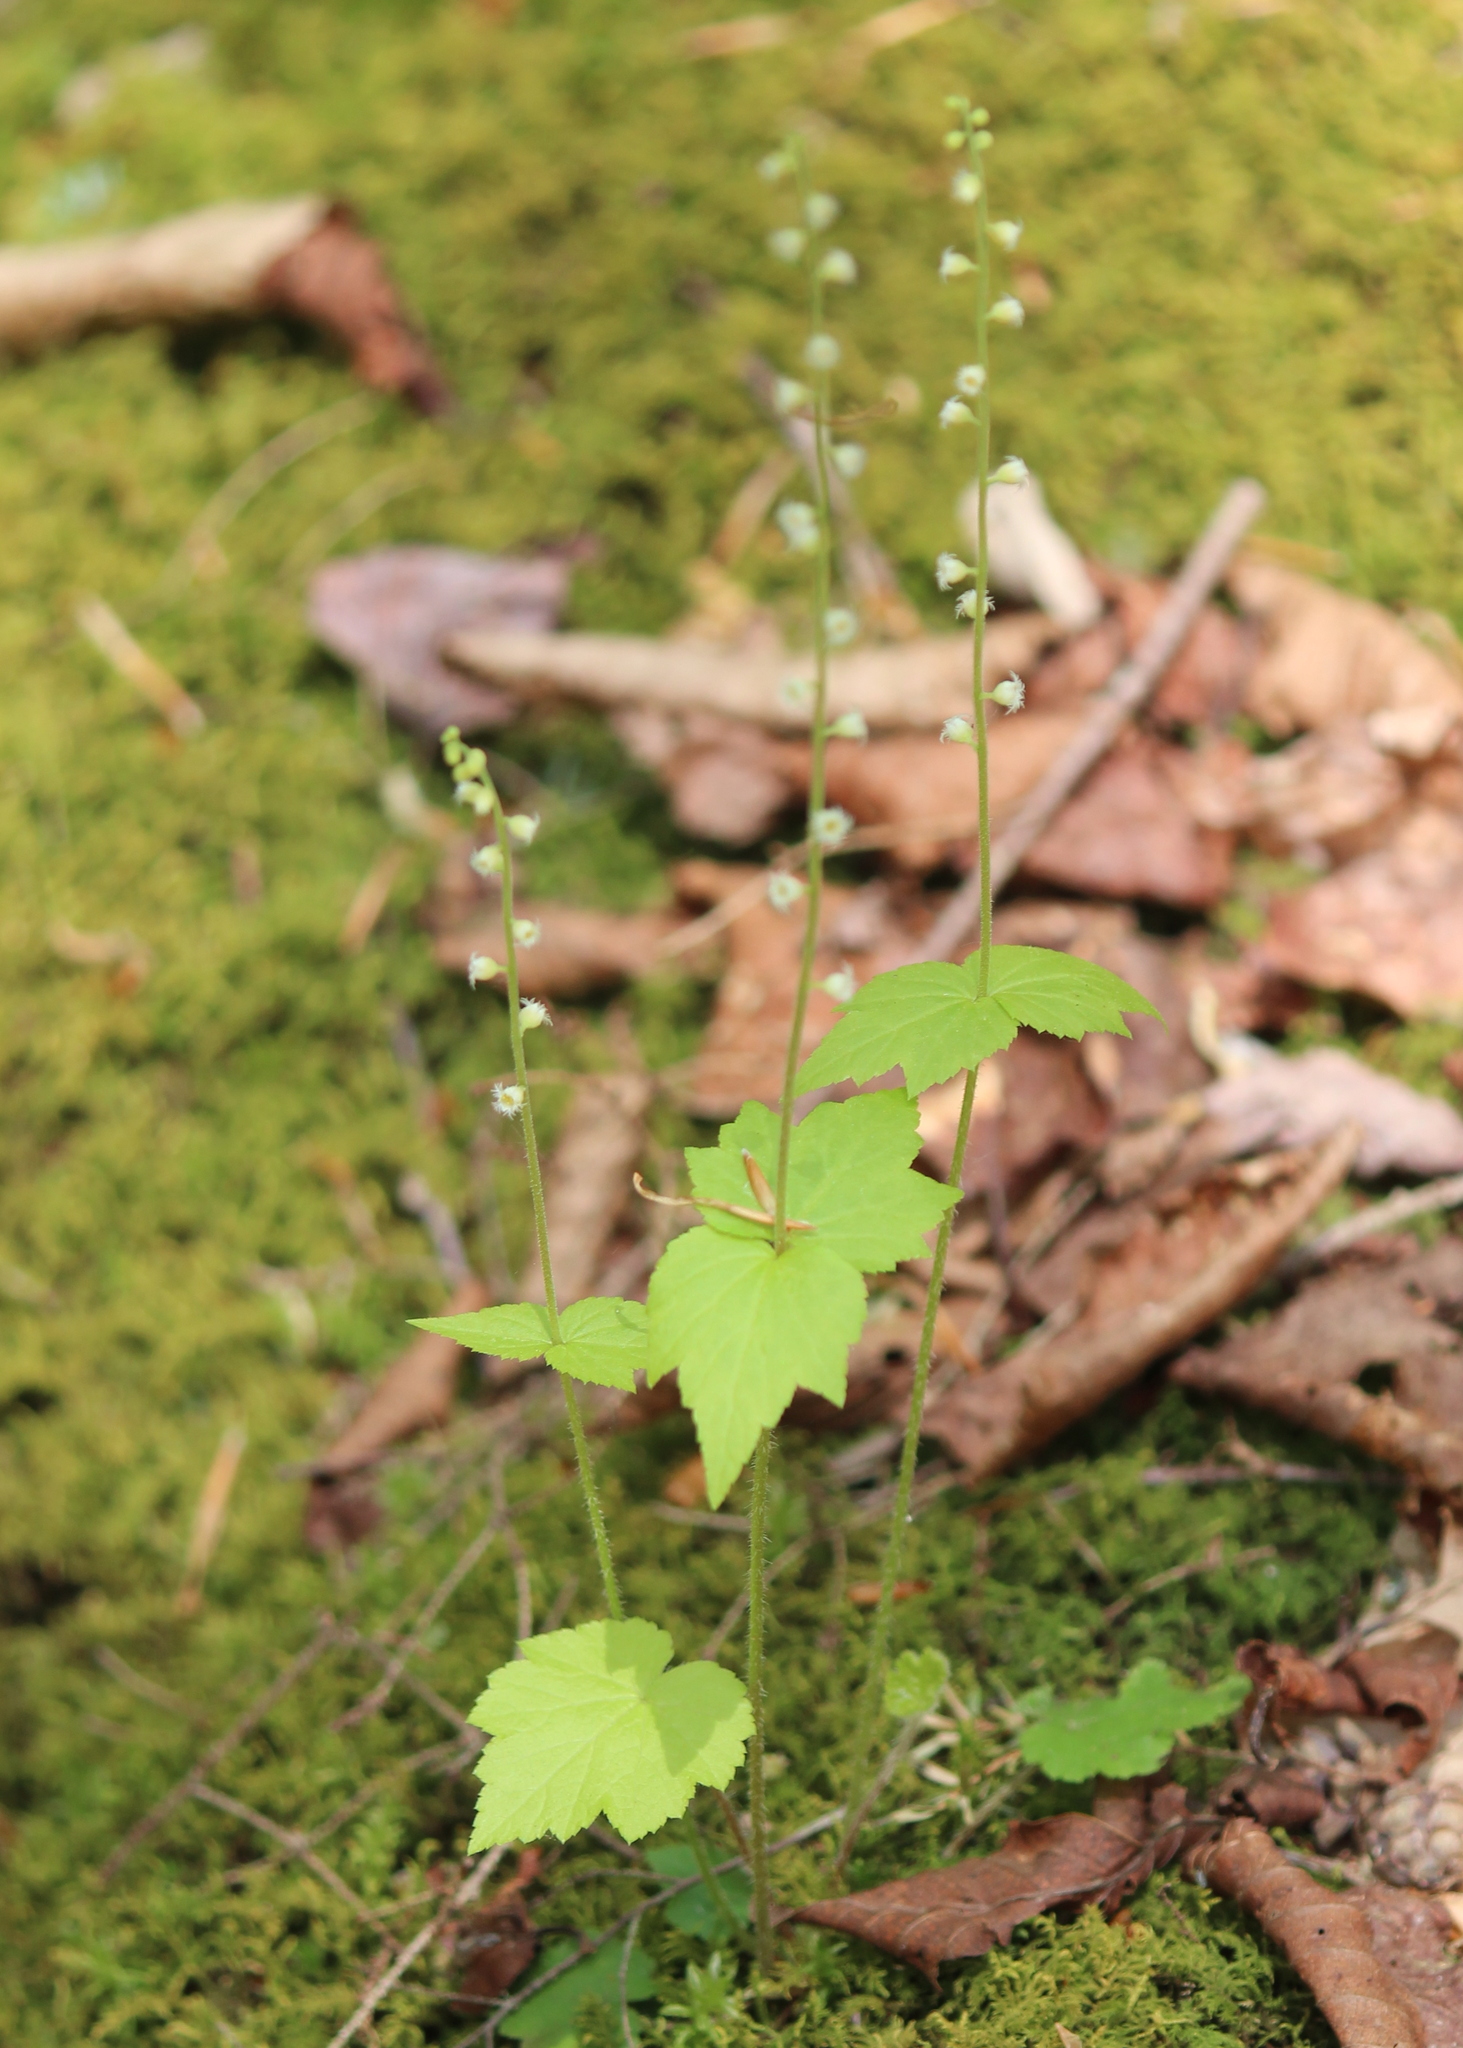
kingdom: Plantae
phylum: Tracheophyta
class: Magnoliopsida
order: Saxifragales
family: Saxifragaceae
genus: Mitella
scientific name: Mitella diphylla
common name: Coolwort
